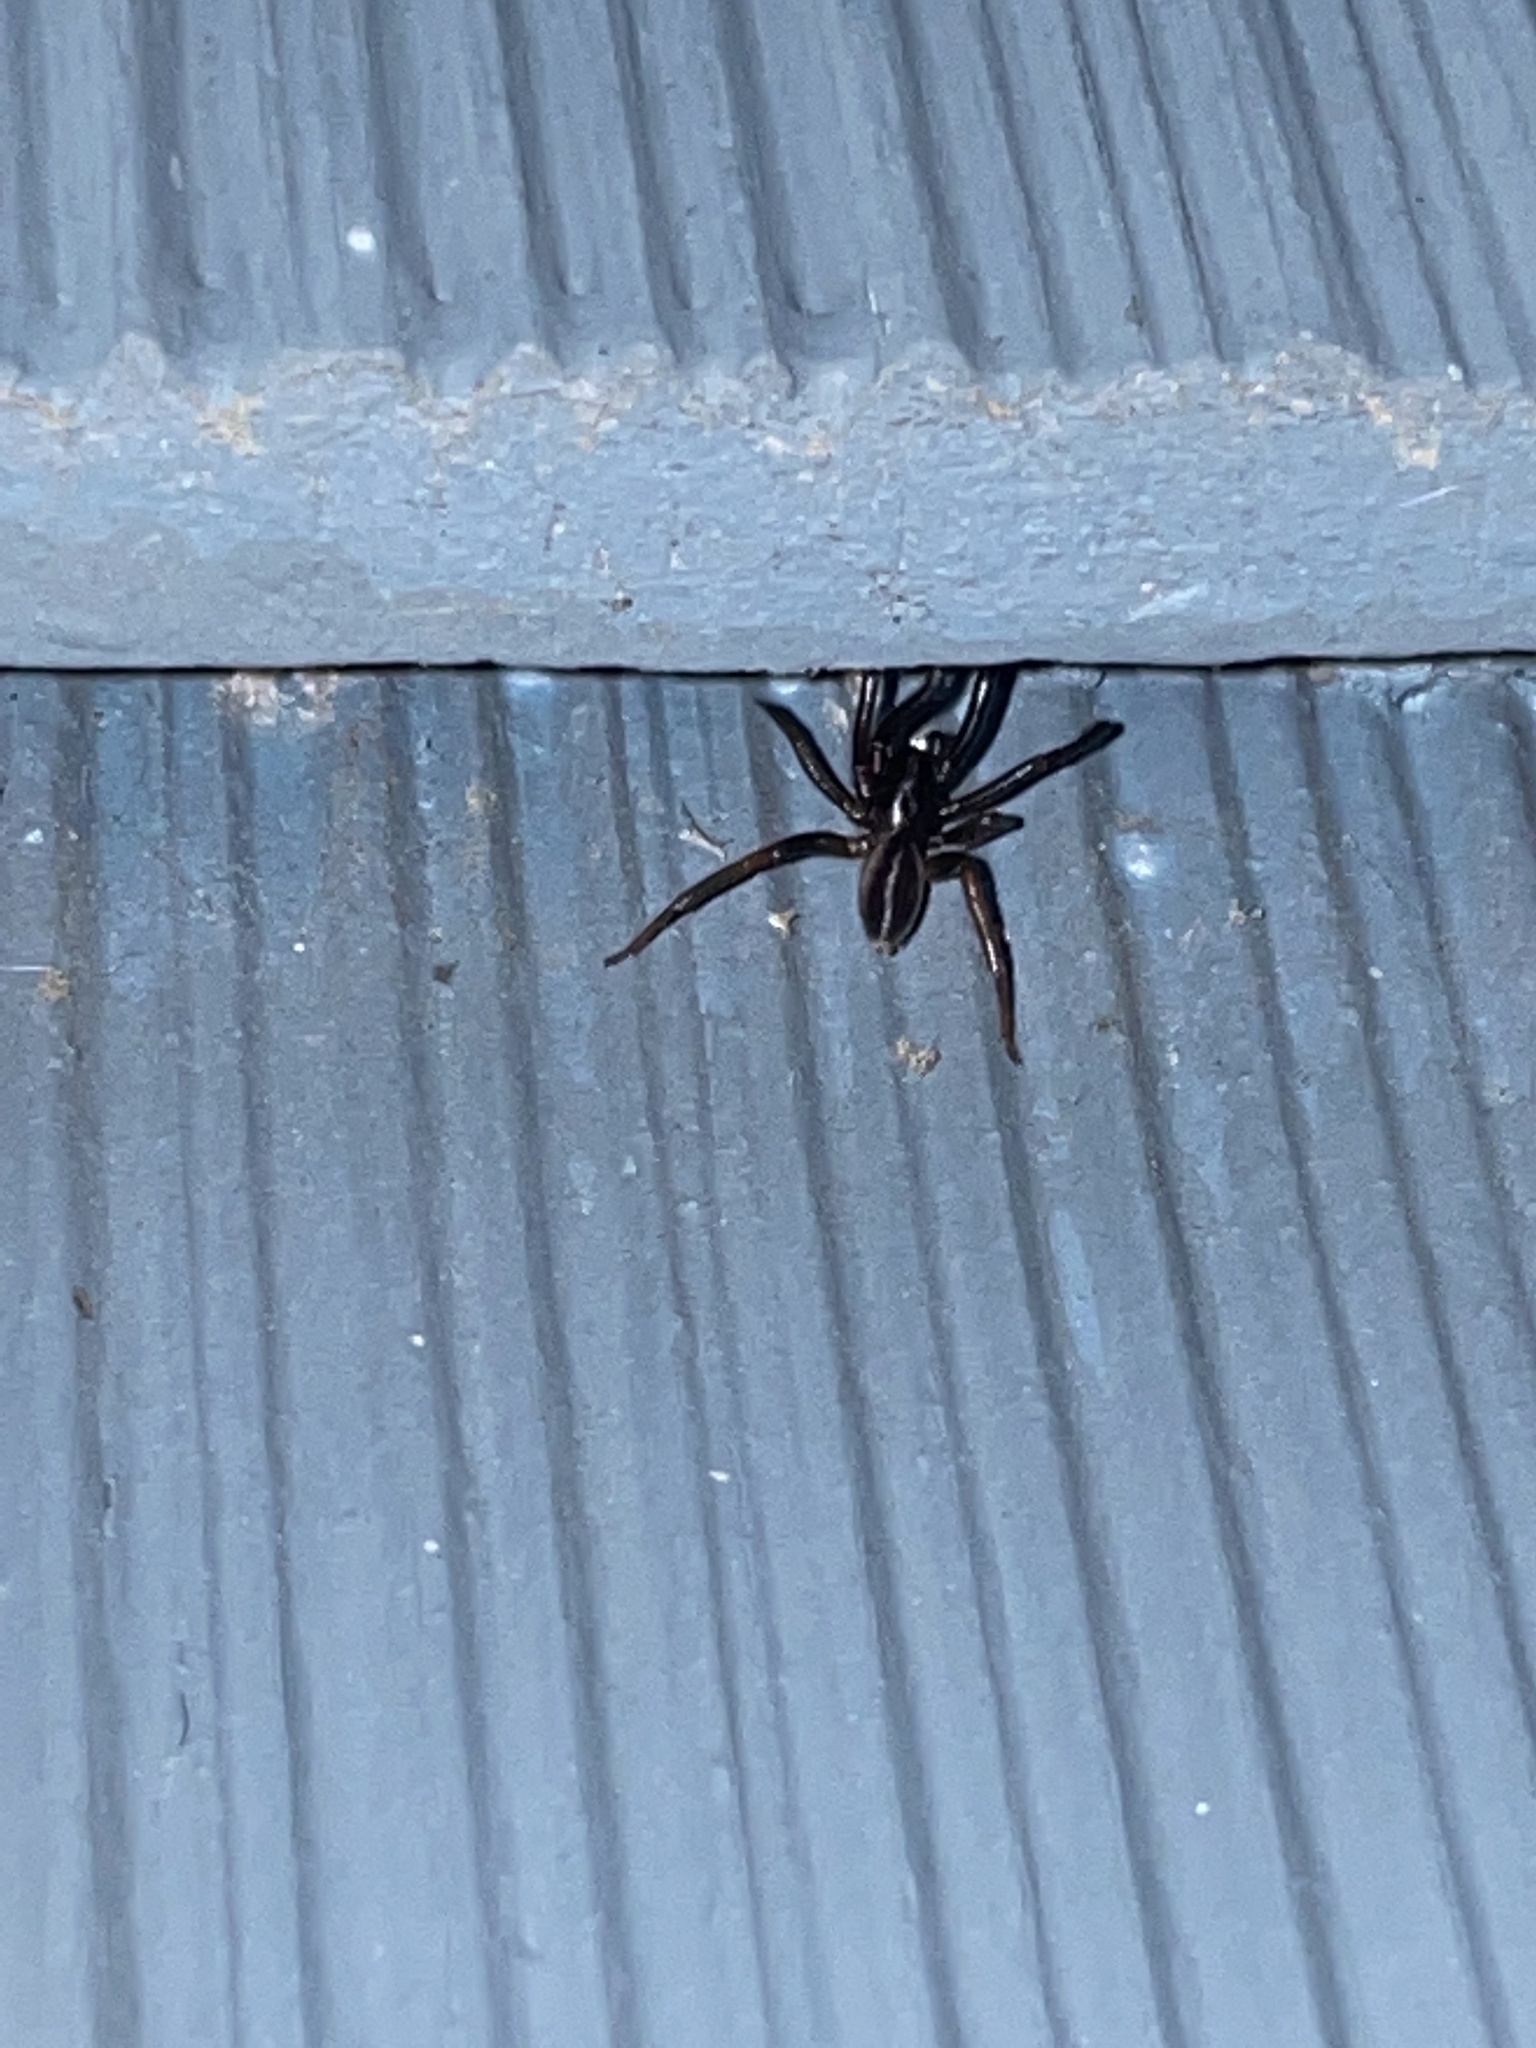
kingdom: Animalia
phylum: Arthropoda
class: Arachnida
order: Araneae
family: Segestriidae
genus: Ariadna
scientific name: Ariadna bicolor
